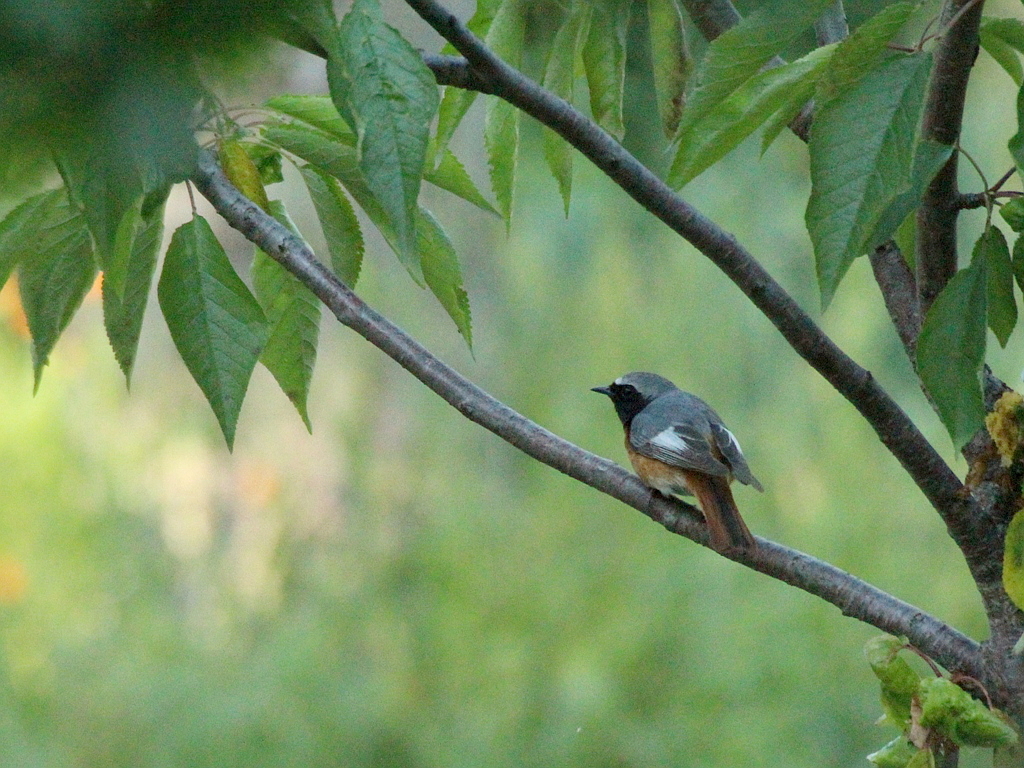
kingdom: Animalia
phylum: Chordata
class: Aves
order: Passeriformes
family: Muscicapidae
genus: Phoenicurus
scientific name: Phoenicurus phoenicurus
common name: Common redstart
